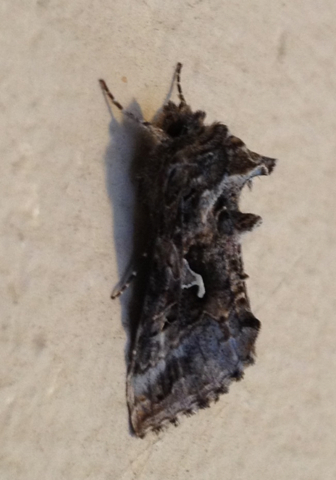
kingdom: Animalia
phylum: Arthropoda
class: Insecta
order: Lepidoptera
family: Noctuidae
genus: Autographa
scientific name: Autographa californica
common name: Alfalfa looper
